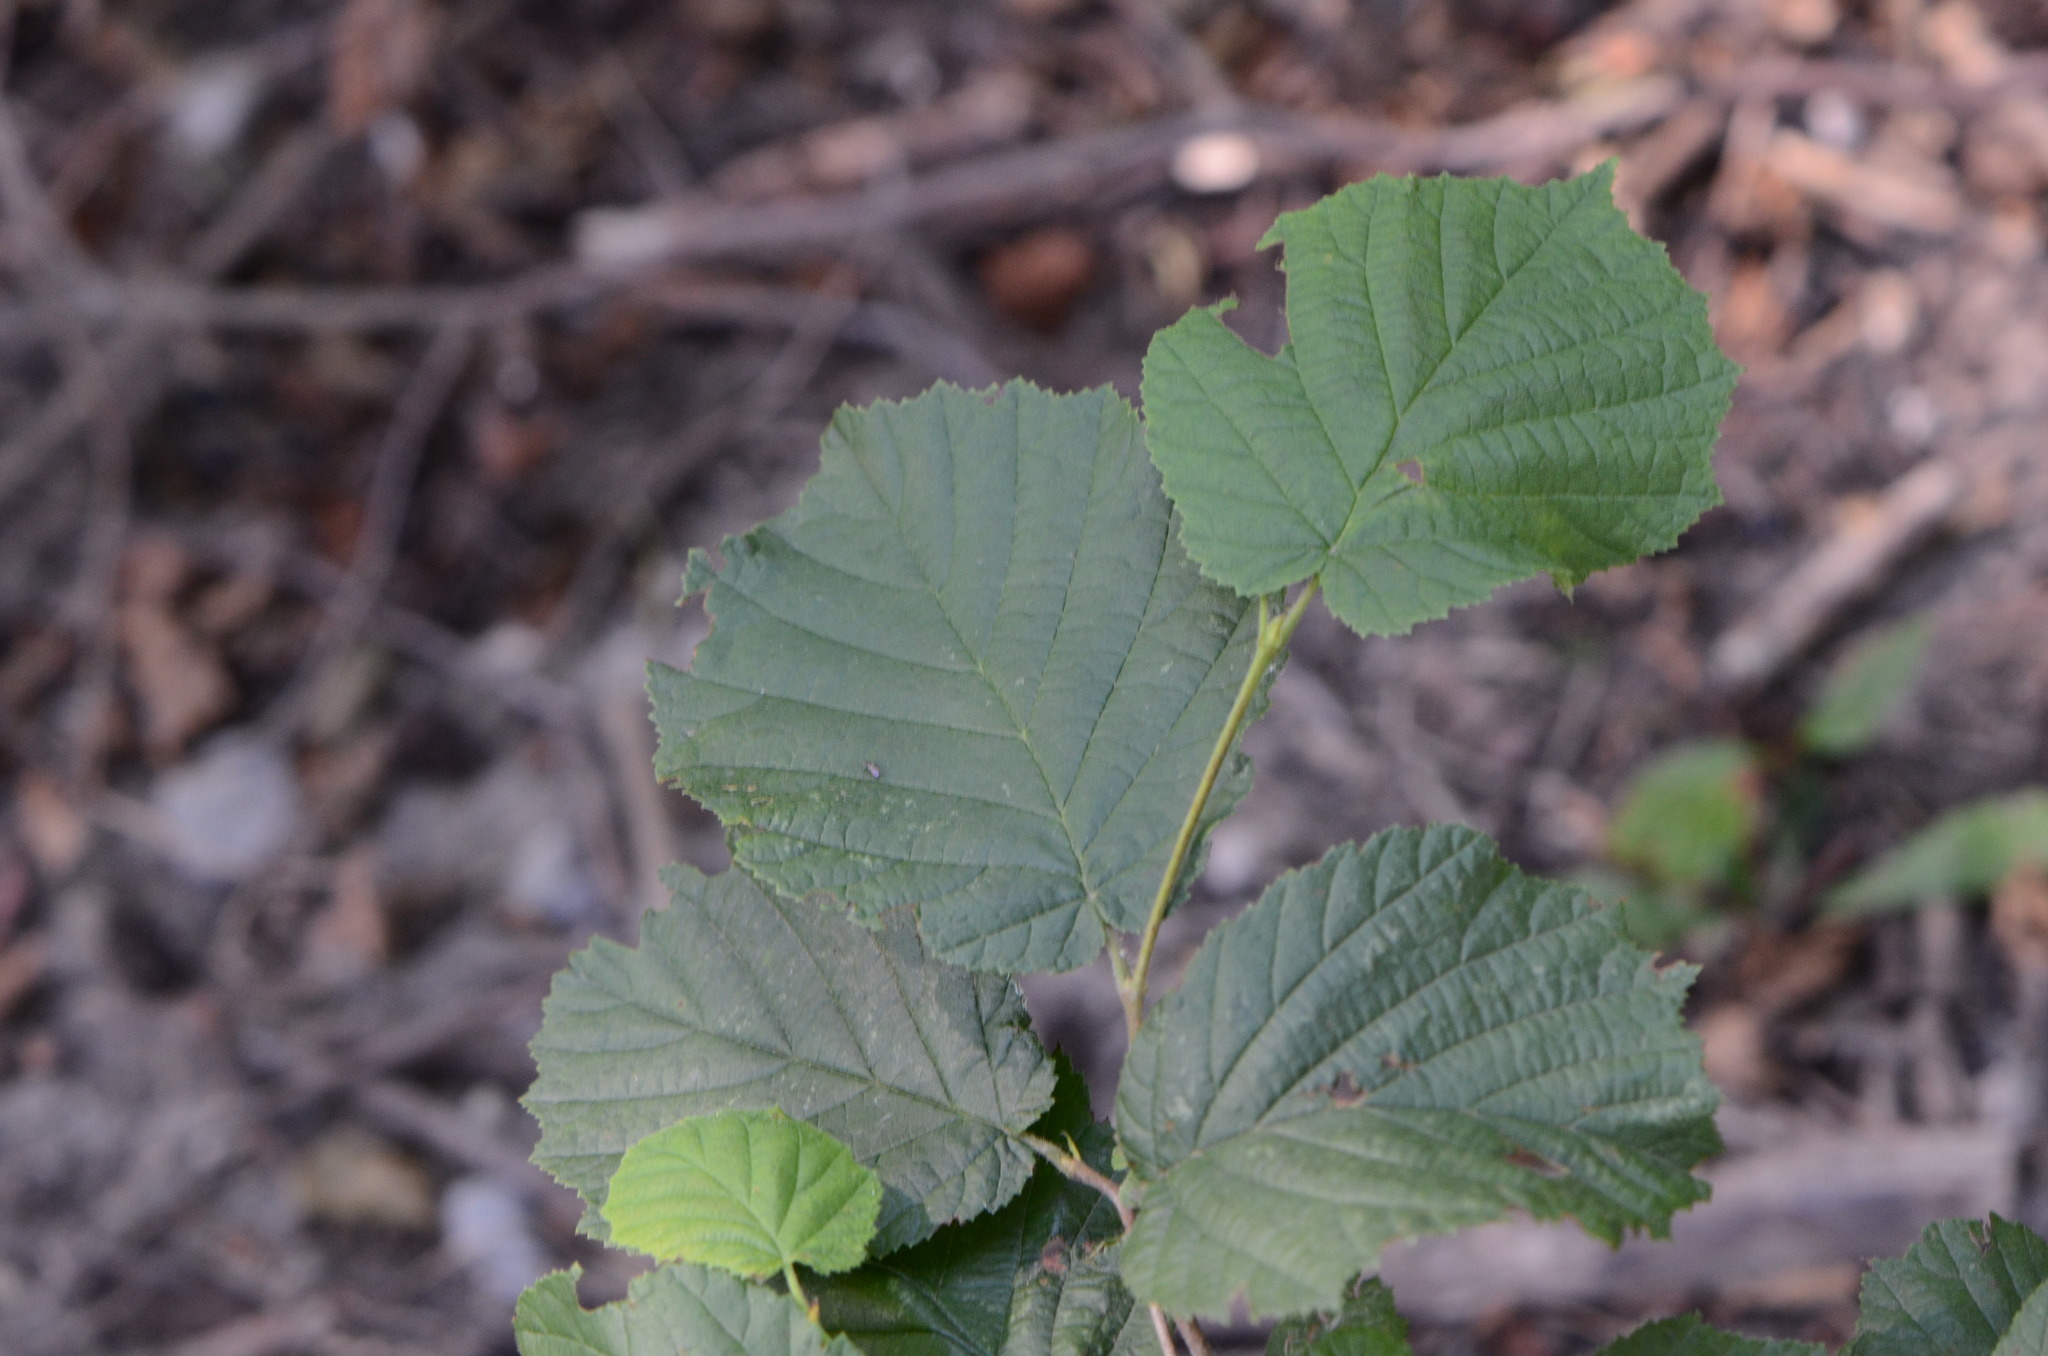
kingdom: Plantae
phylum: Tracheophyta
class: Magnoliopsida
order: Fagales
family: Betulaceae
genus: Corylus
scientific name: Corylus avellana
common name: European hazel
